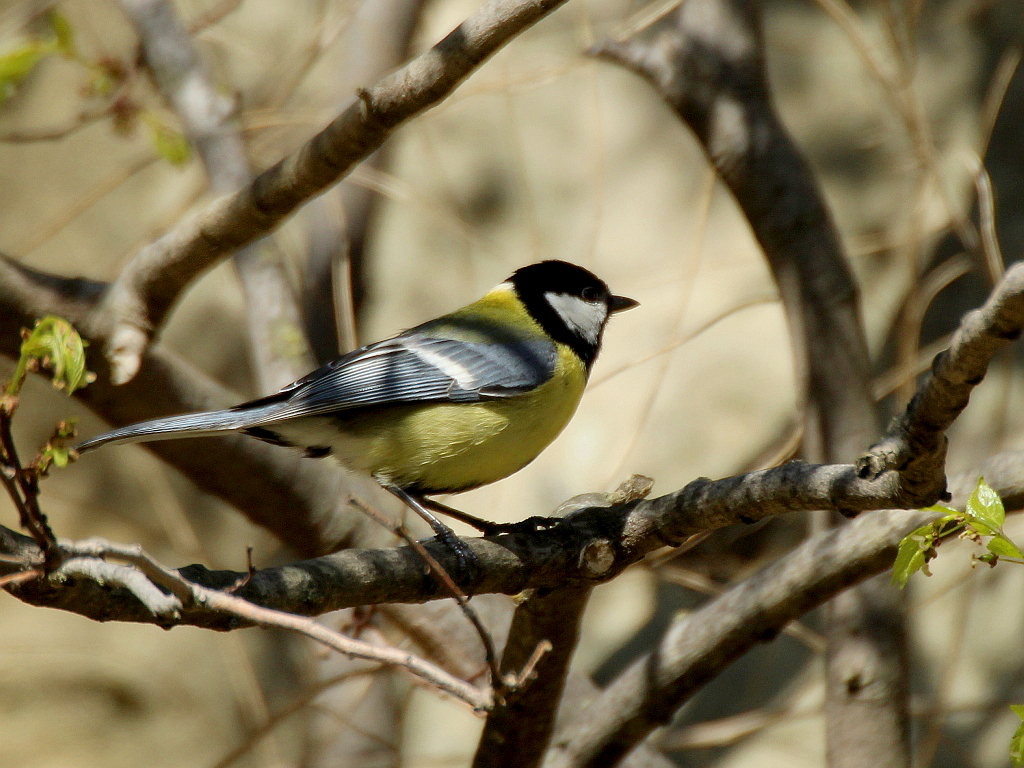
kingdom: Animalia
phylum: Chordata
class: Aves
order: Passeriformes
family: Paridae
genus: Parus
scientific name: Parus major
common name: Great tit
